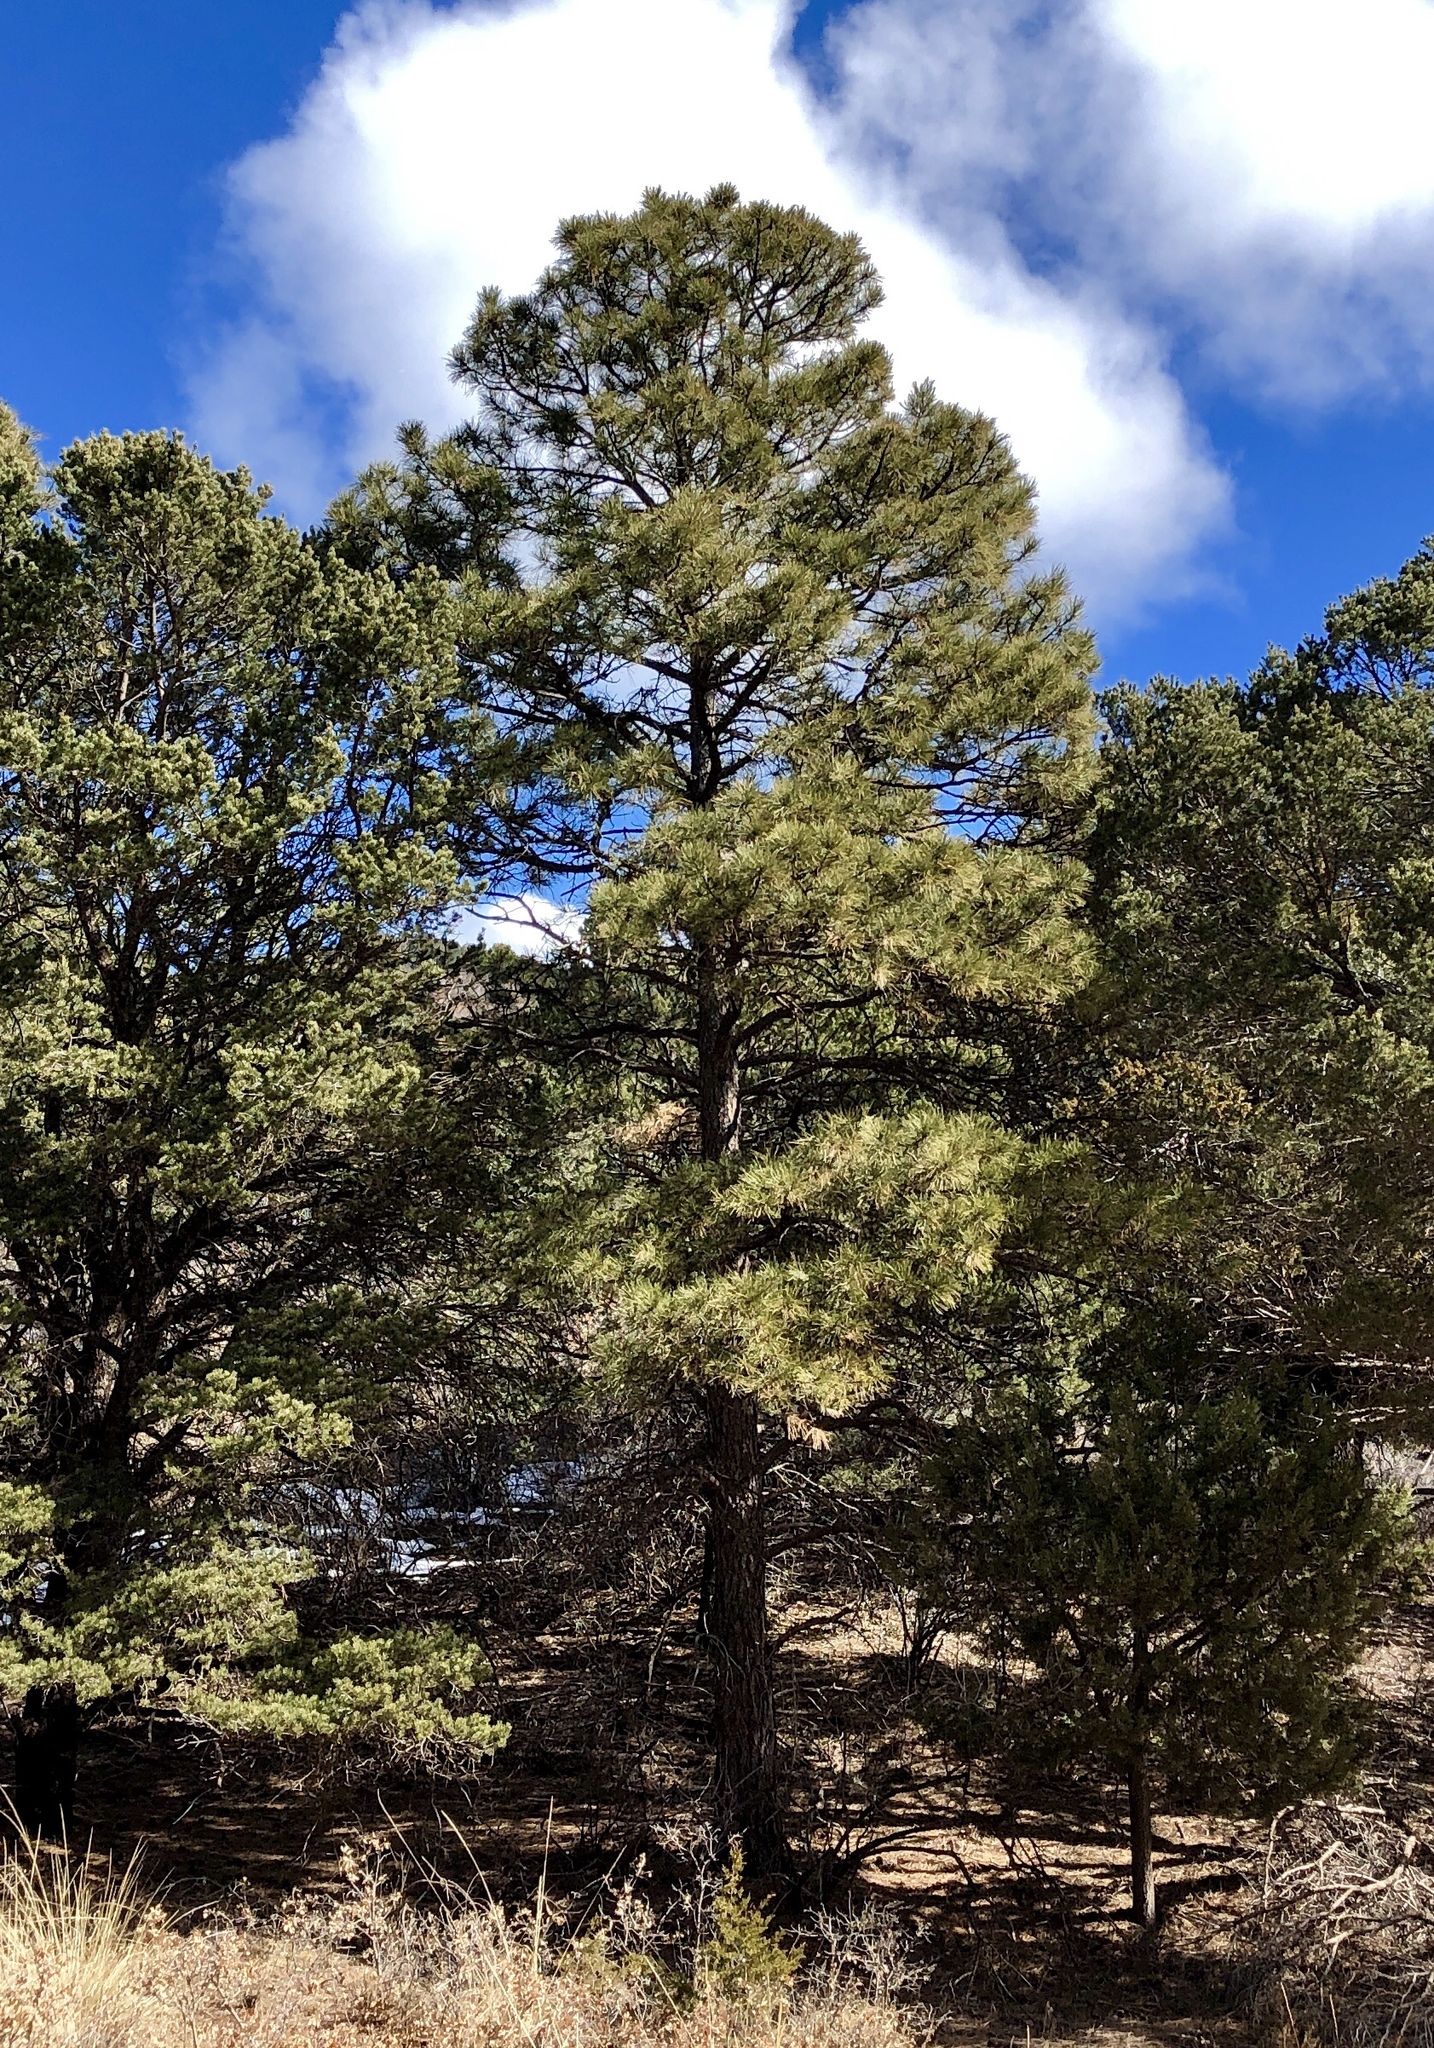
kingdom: Plantae
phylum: Tracheophyta
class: Pinopsida
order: Pinales
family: Pinaceae
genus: Pinus
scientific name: Pinus ponderosa
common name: Western yellow-pine
